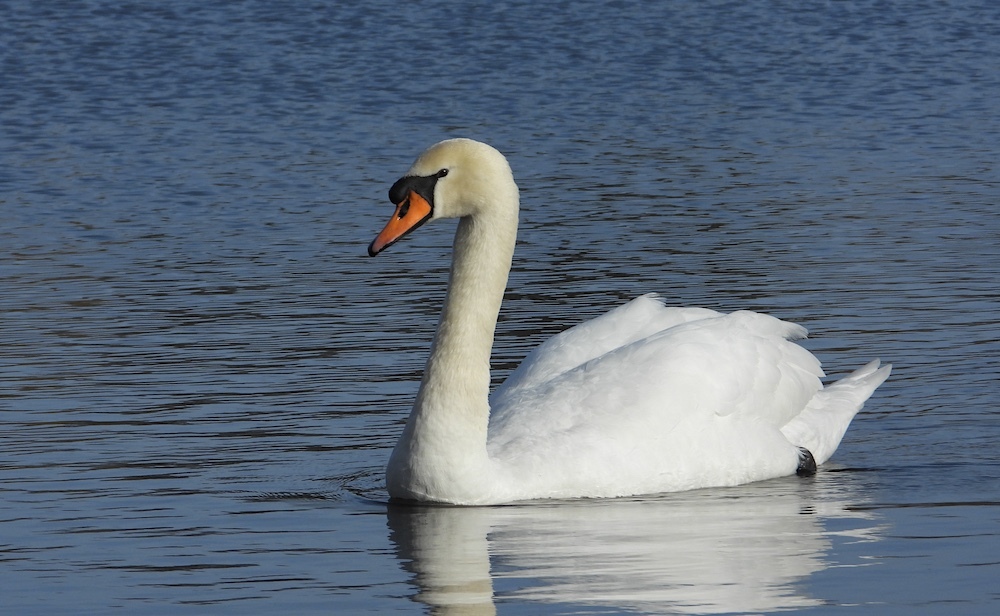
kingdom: Animalia
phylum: Chordata
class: Aves
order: Anseriformes
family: Anatidae
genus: Cygnus
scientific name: Cygnus olor
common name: Mute swan
